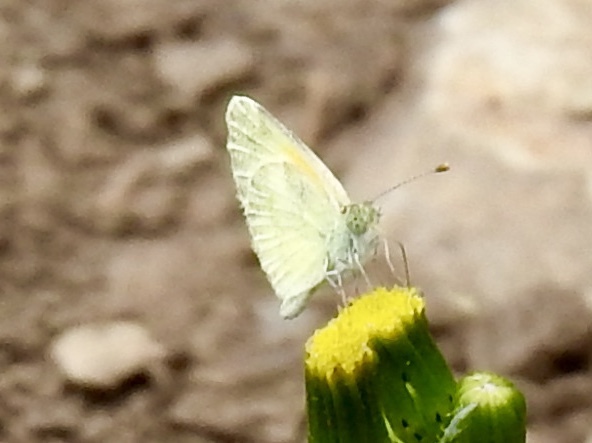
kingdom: Animalia
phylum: Arthropoda
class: Insecta
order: Lepidoptera
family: Pieridae
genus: Nathalis
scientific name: Nathalis iole
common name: Dainty sulphur
